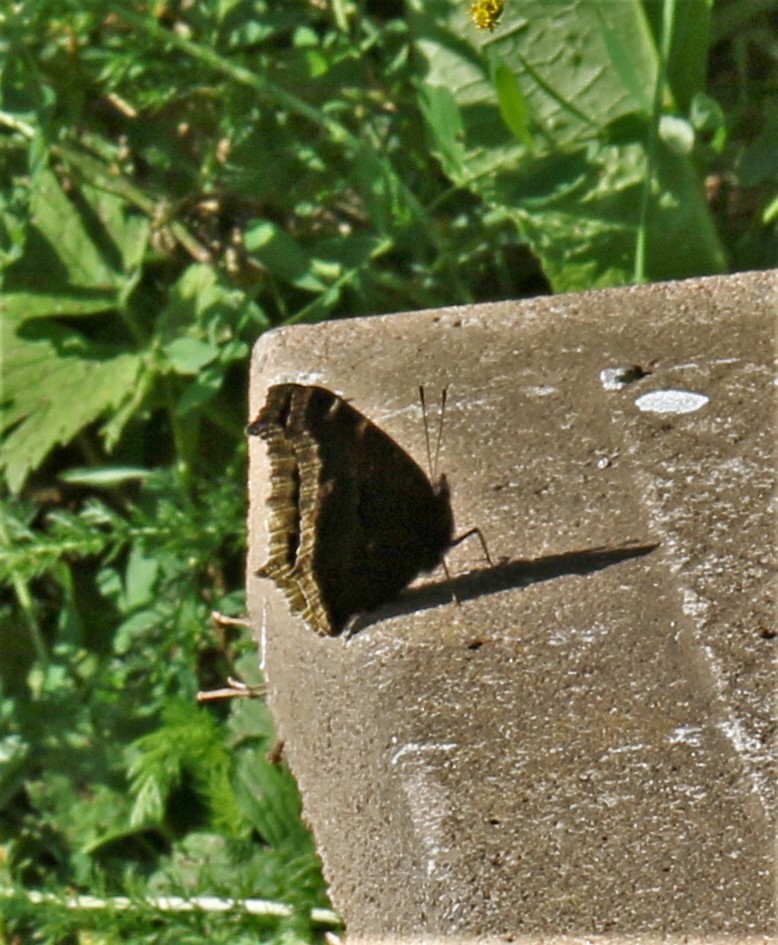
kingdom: Animalia
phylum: Arthropoda
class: Insecta
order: Lepidoptera
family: Nymphalidae
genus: Nymphalis
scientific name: Nymphalis antiopa
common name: Camberwell beauty
